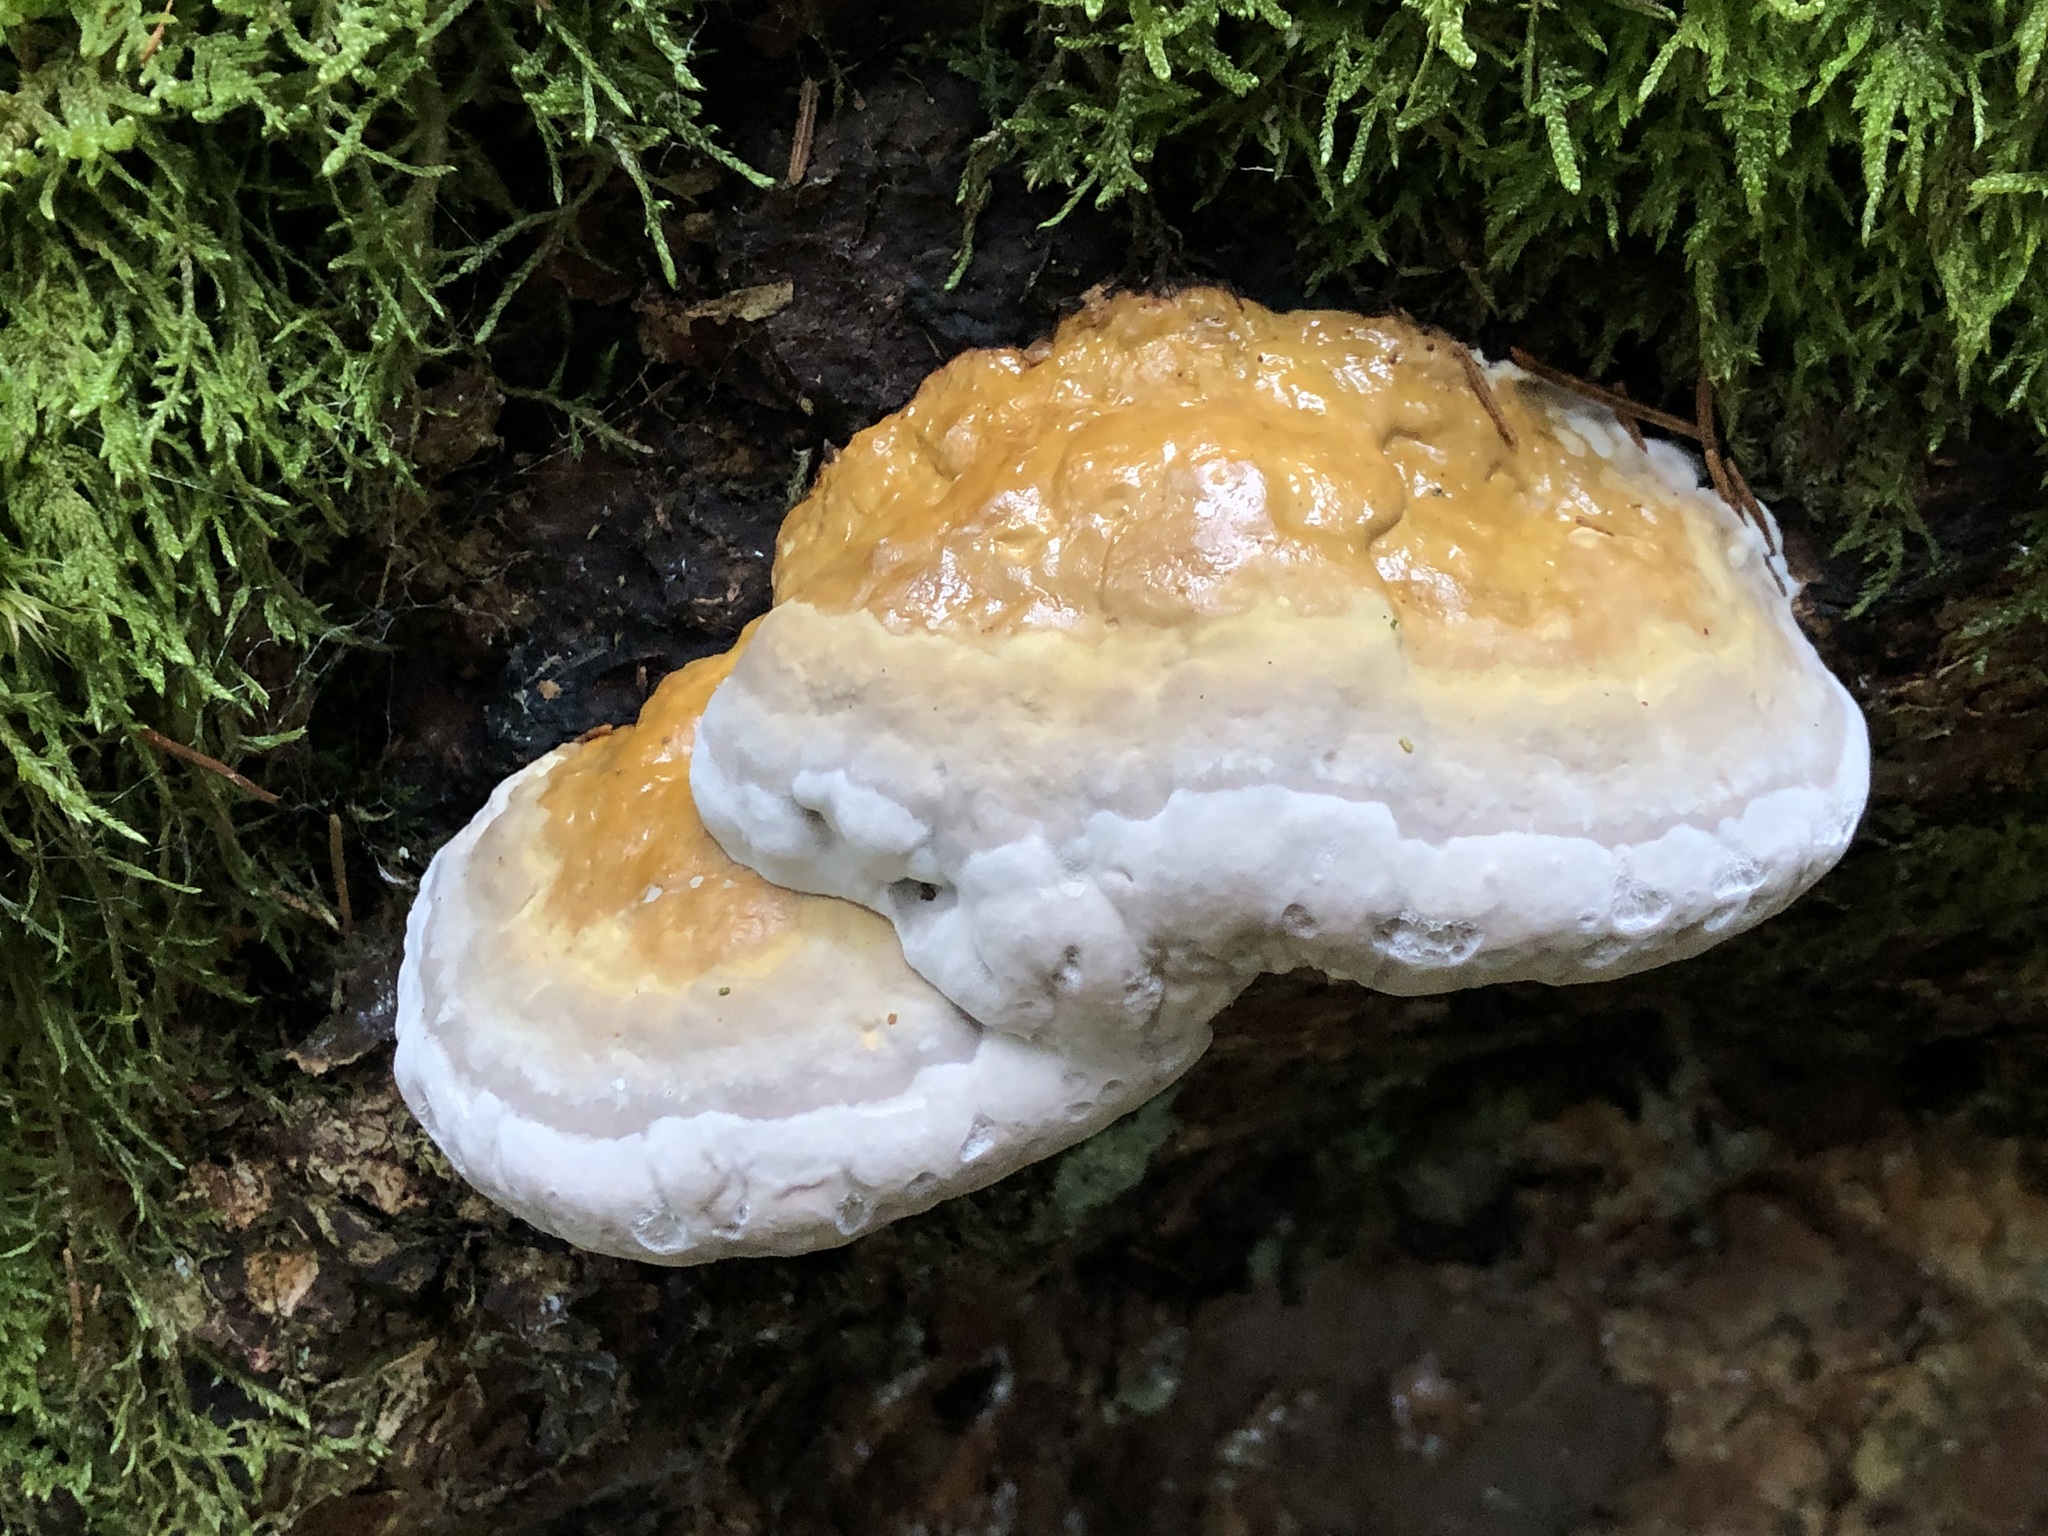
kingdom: Fungi
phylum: Basidiomycota
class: Agaricomycetes
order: Polyporales
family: Fomitopsidaceae
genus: Fomitopsis
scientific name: Fomitopsis pinicola
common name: Red-belted bracket
